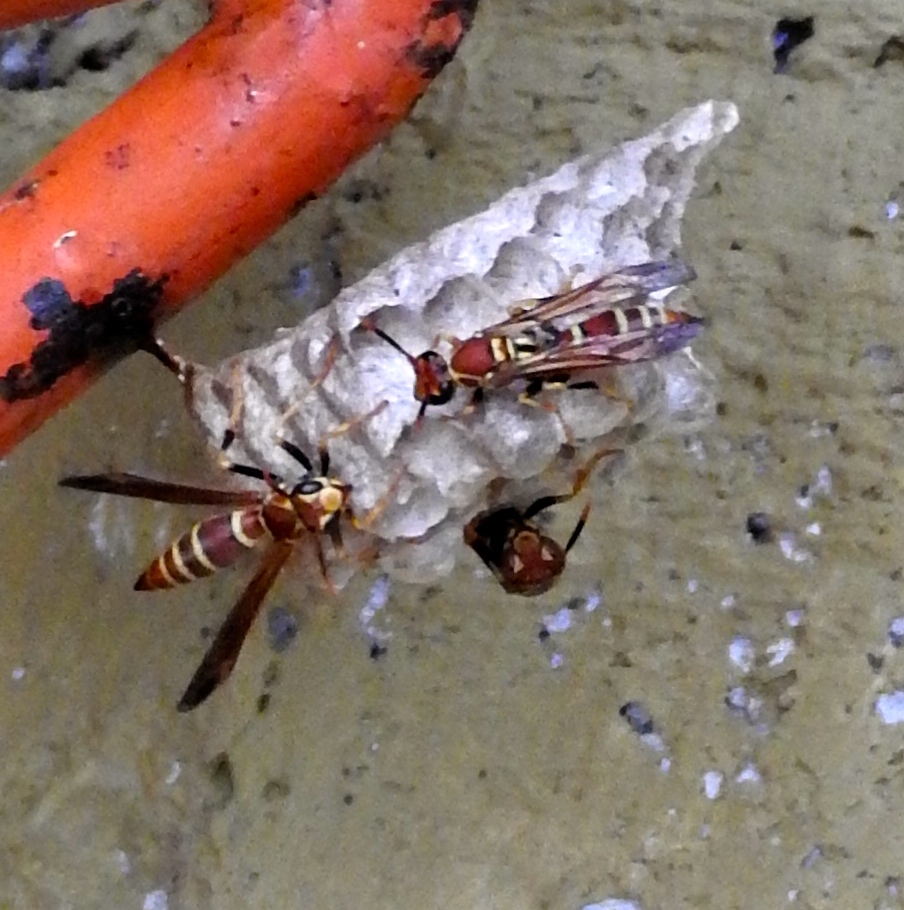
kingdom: Animalia
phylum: Arthropoda
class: Insecta
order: Hymenoptera
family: Eumenidae
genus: Polistes
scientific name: Polistes instabilis
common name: Unstable paper wasp
